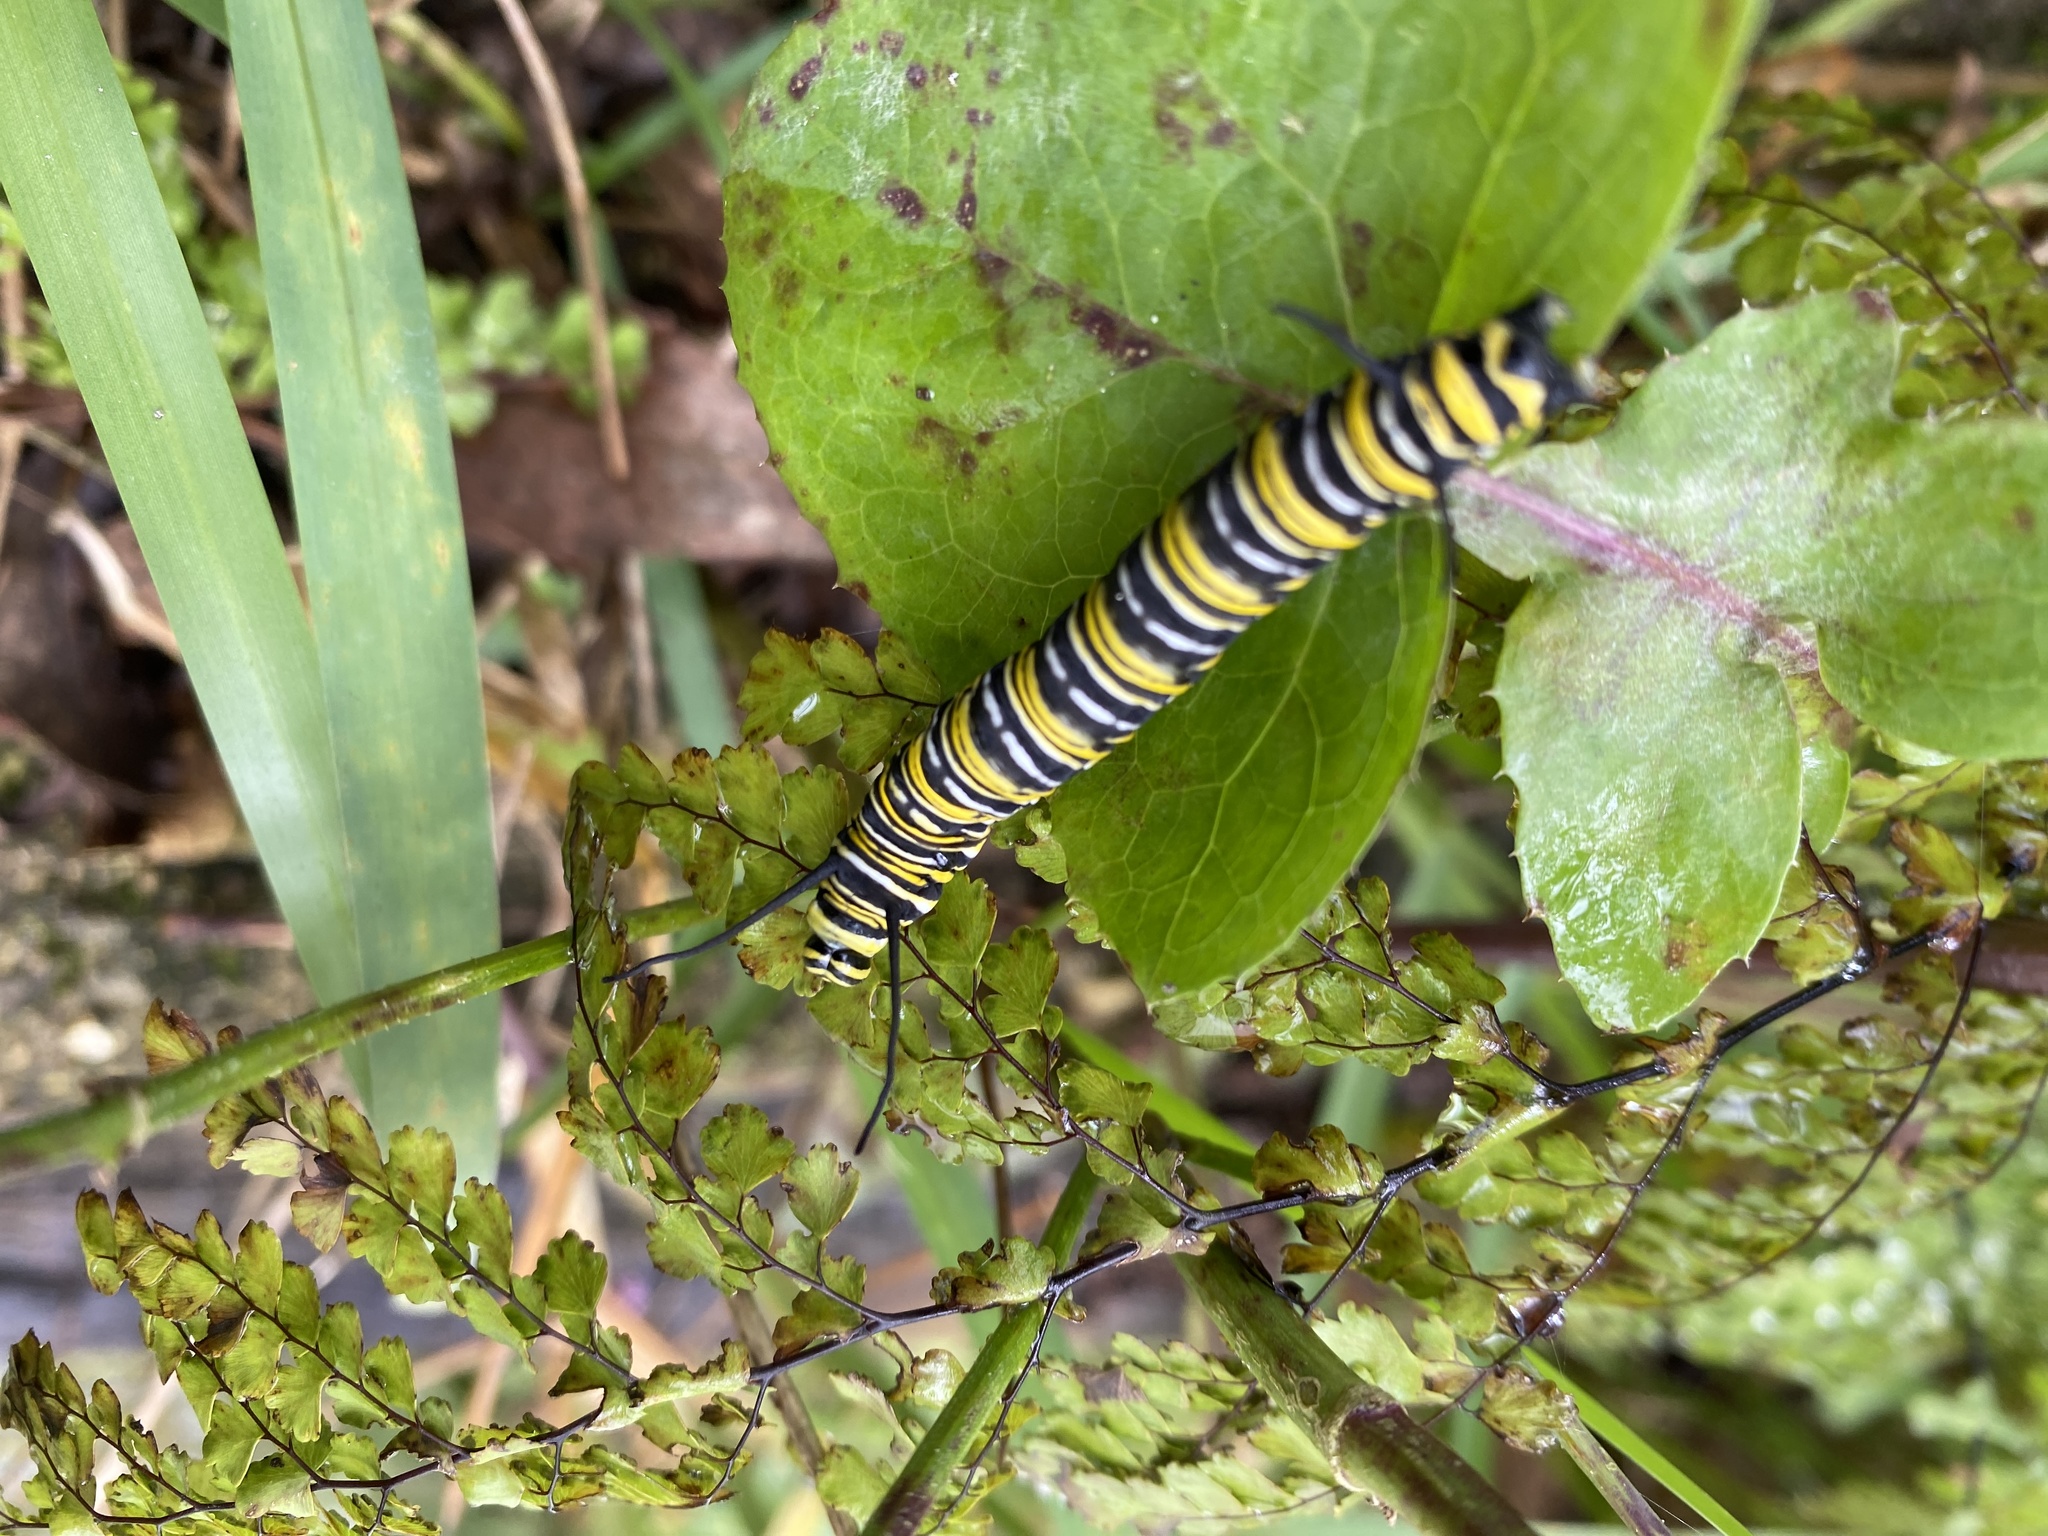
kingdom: Animalia
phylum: Arthropoda
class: Insecta
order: Lepidoptera
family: Nymphalidae
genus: Danaus
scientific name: Danaus plexippus
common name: Monarch
